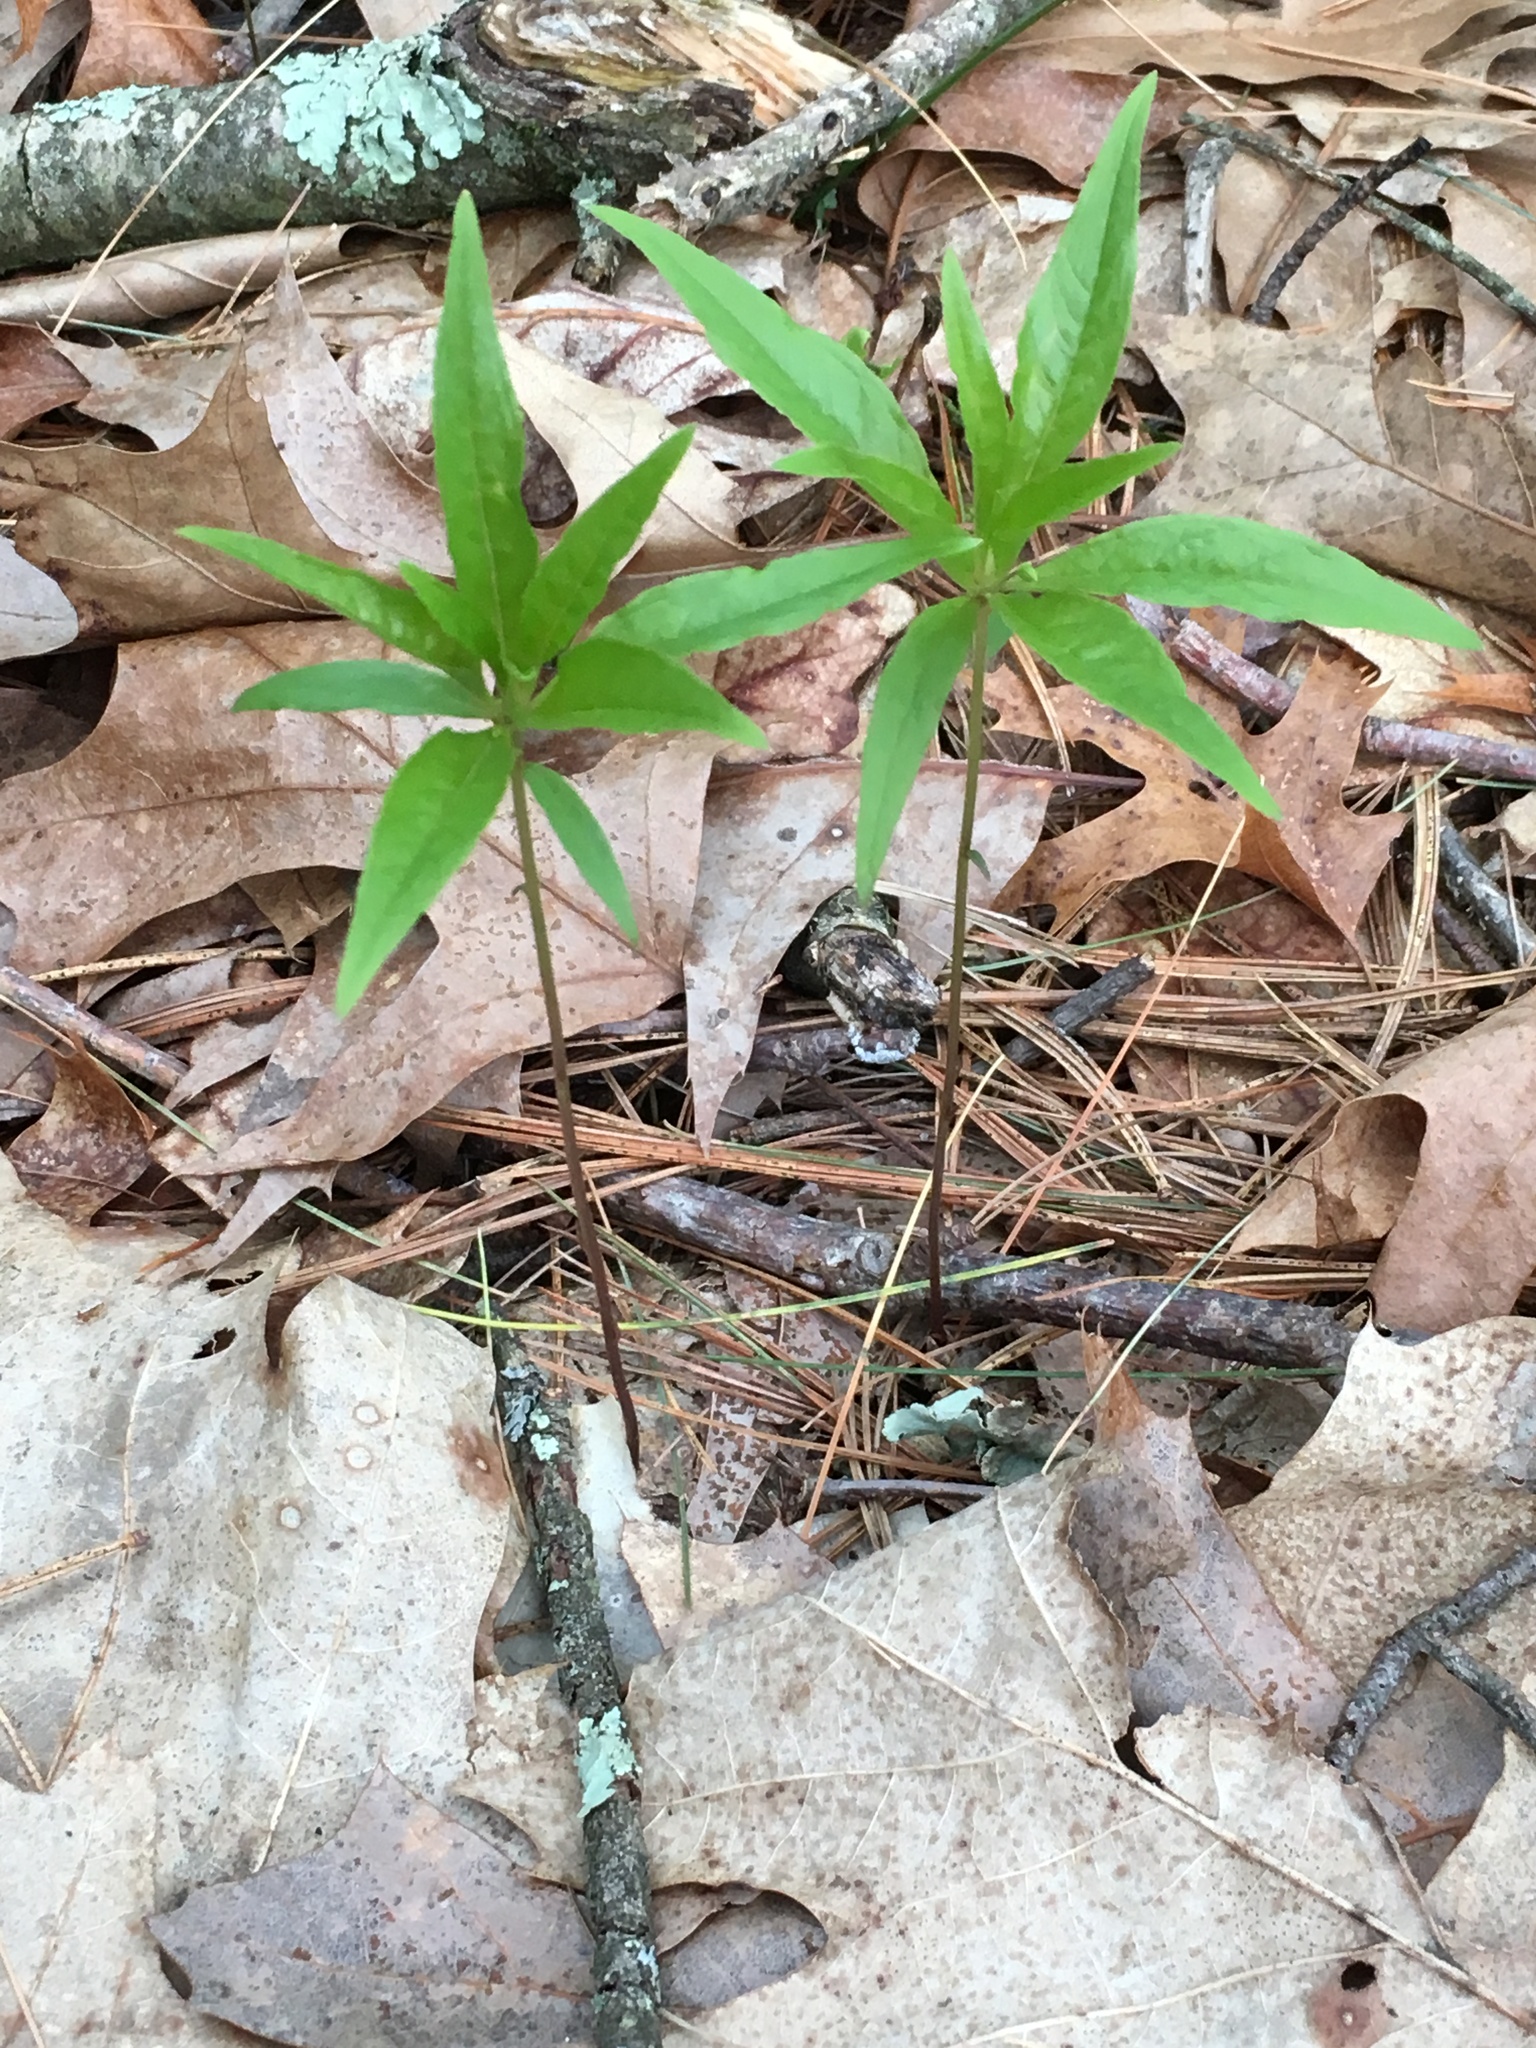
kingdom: Plantae
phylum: Tracheophyta
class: Magnoliopsida
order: Ericales
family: Primulaceae
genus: Lysimachia
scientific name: Lysimachia borealis
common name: American starflower
